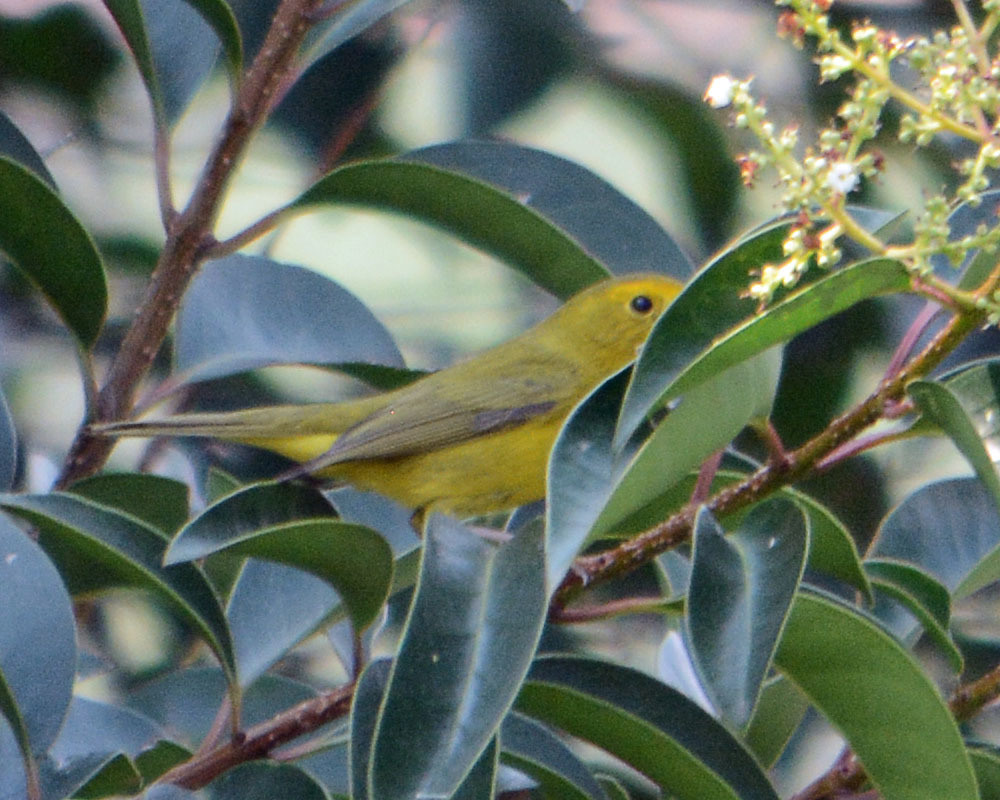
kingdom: Animalia
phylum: Chordata
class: Aves
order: Passeriformes
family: Parulidae
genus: Cardellina
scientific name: Cardellina pusilla
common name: Wilson's warbler
